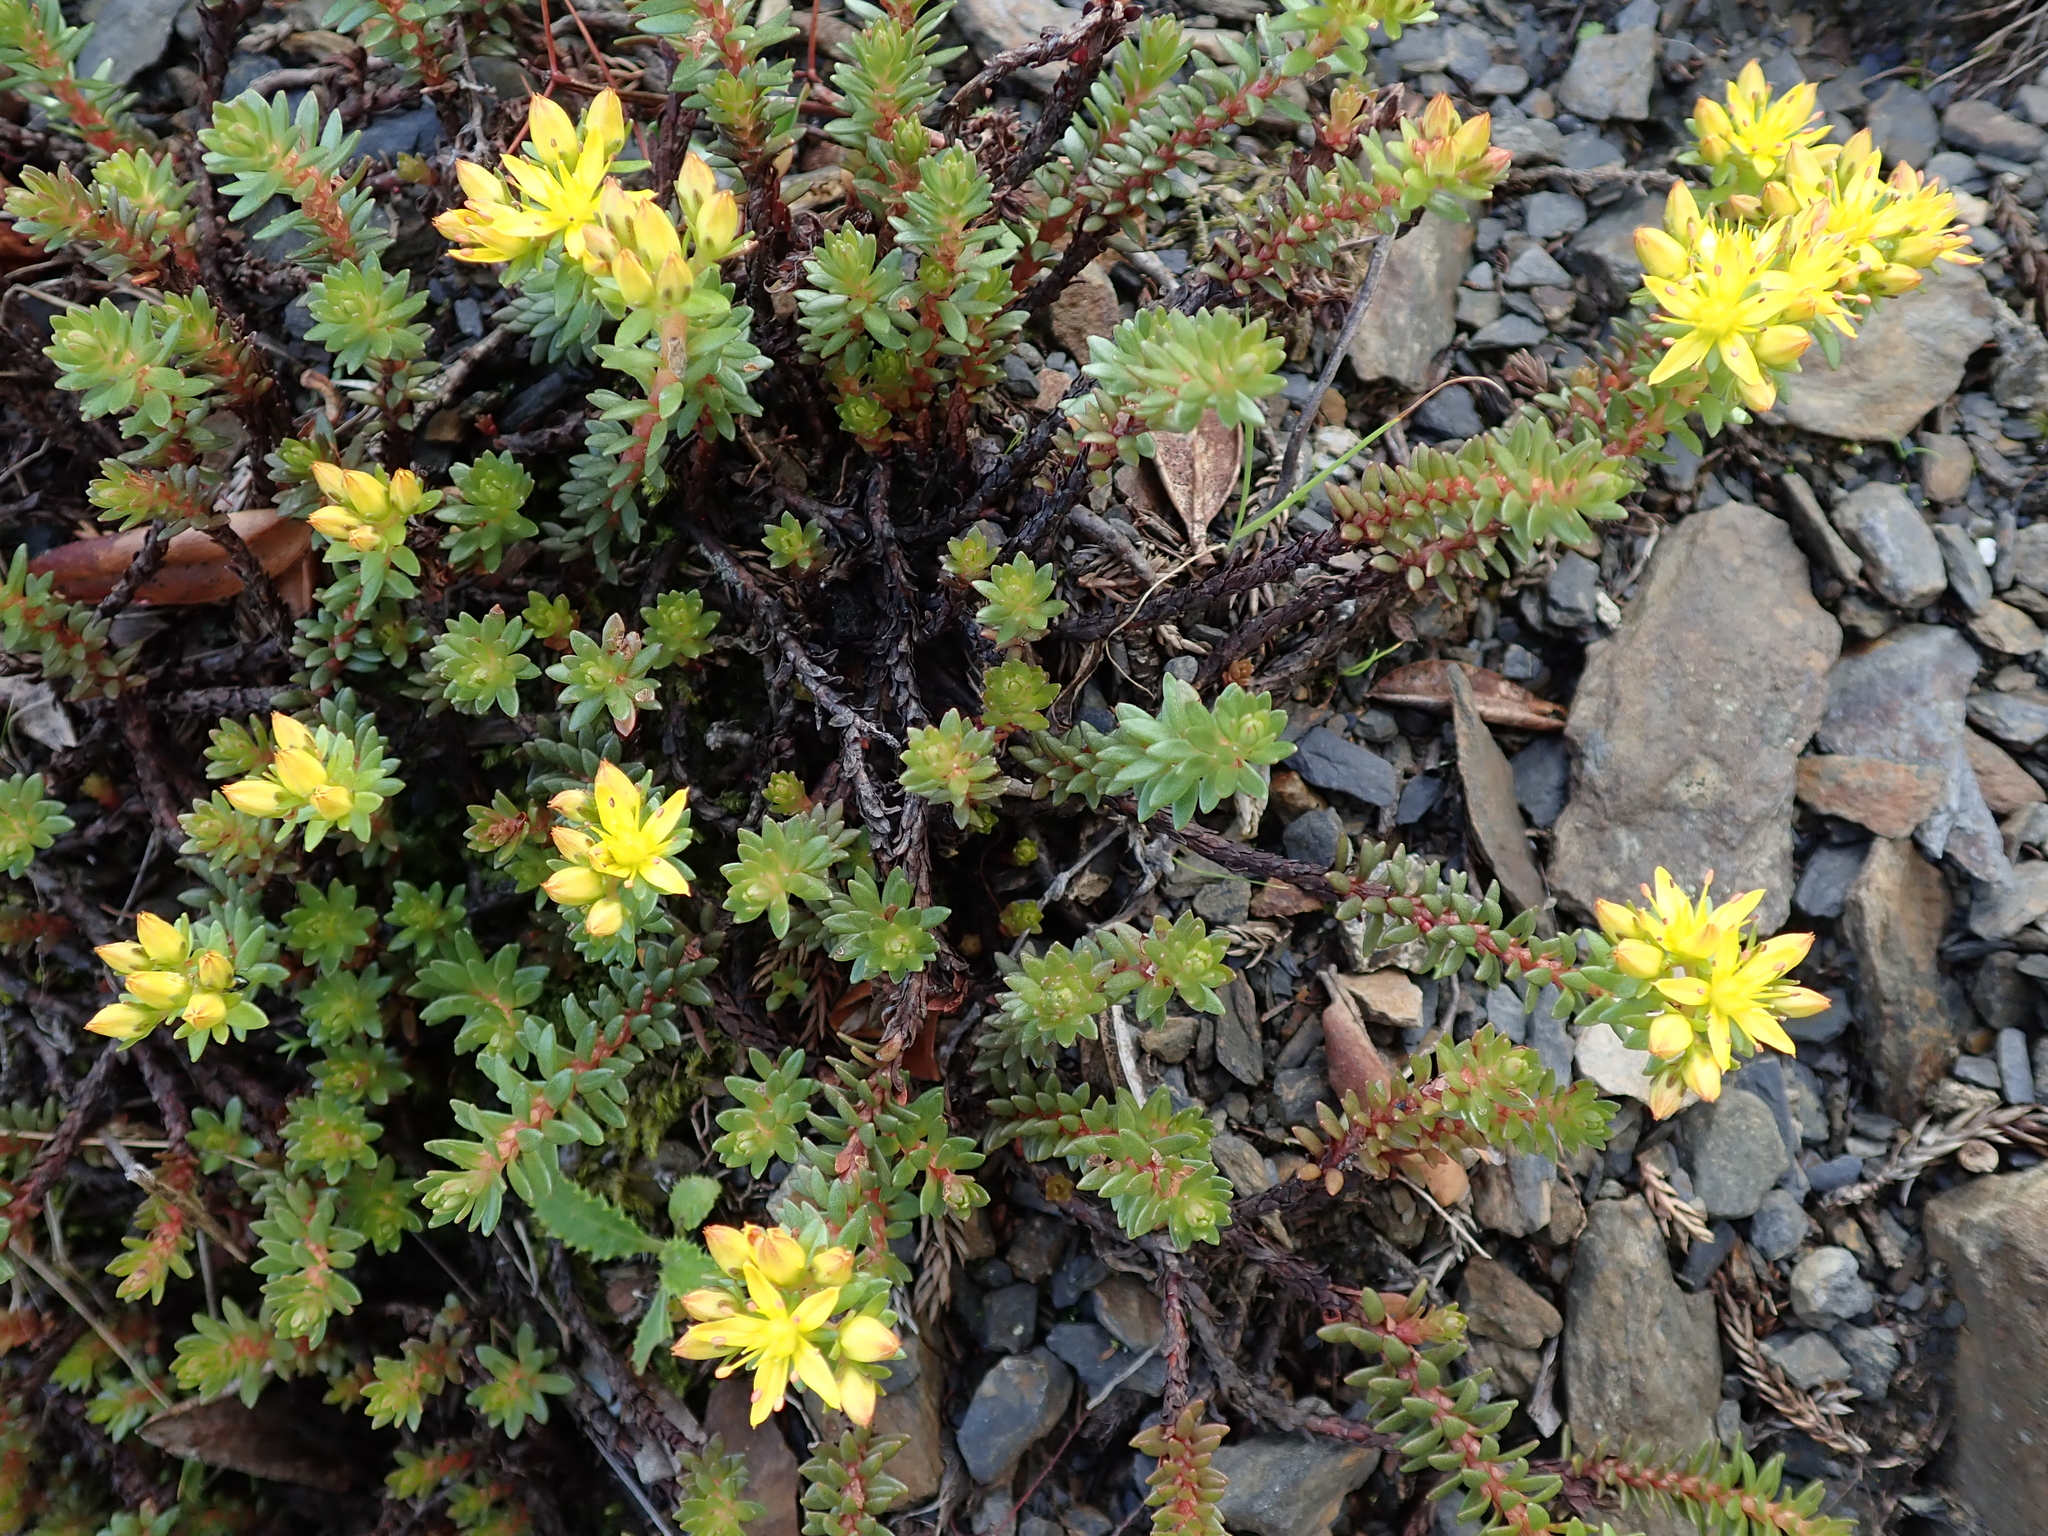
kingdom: Plantae
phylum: Tracheophyta
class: Magnoliopsida
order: Saxifragales
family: Crassulaceae
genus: Sedum
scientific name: Sedum morrisonense
